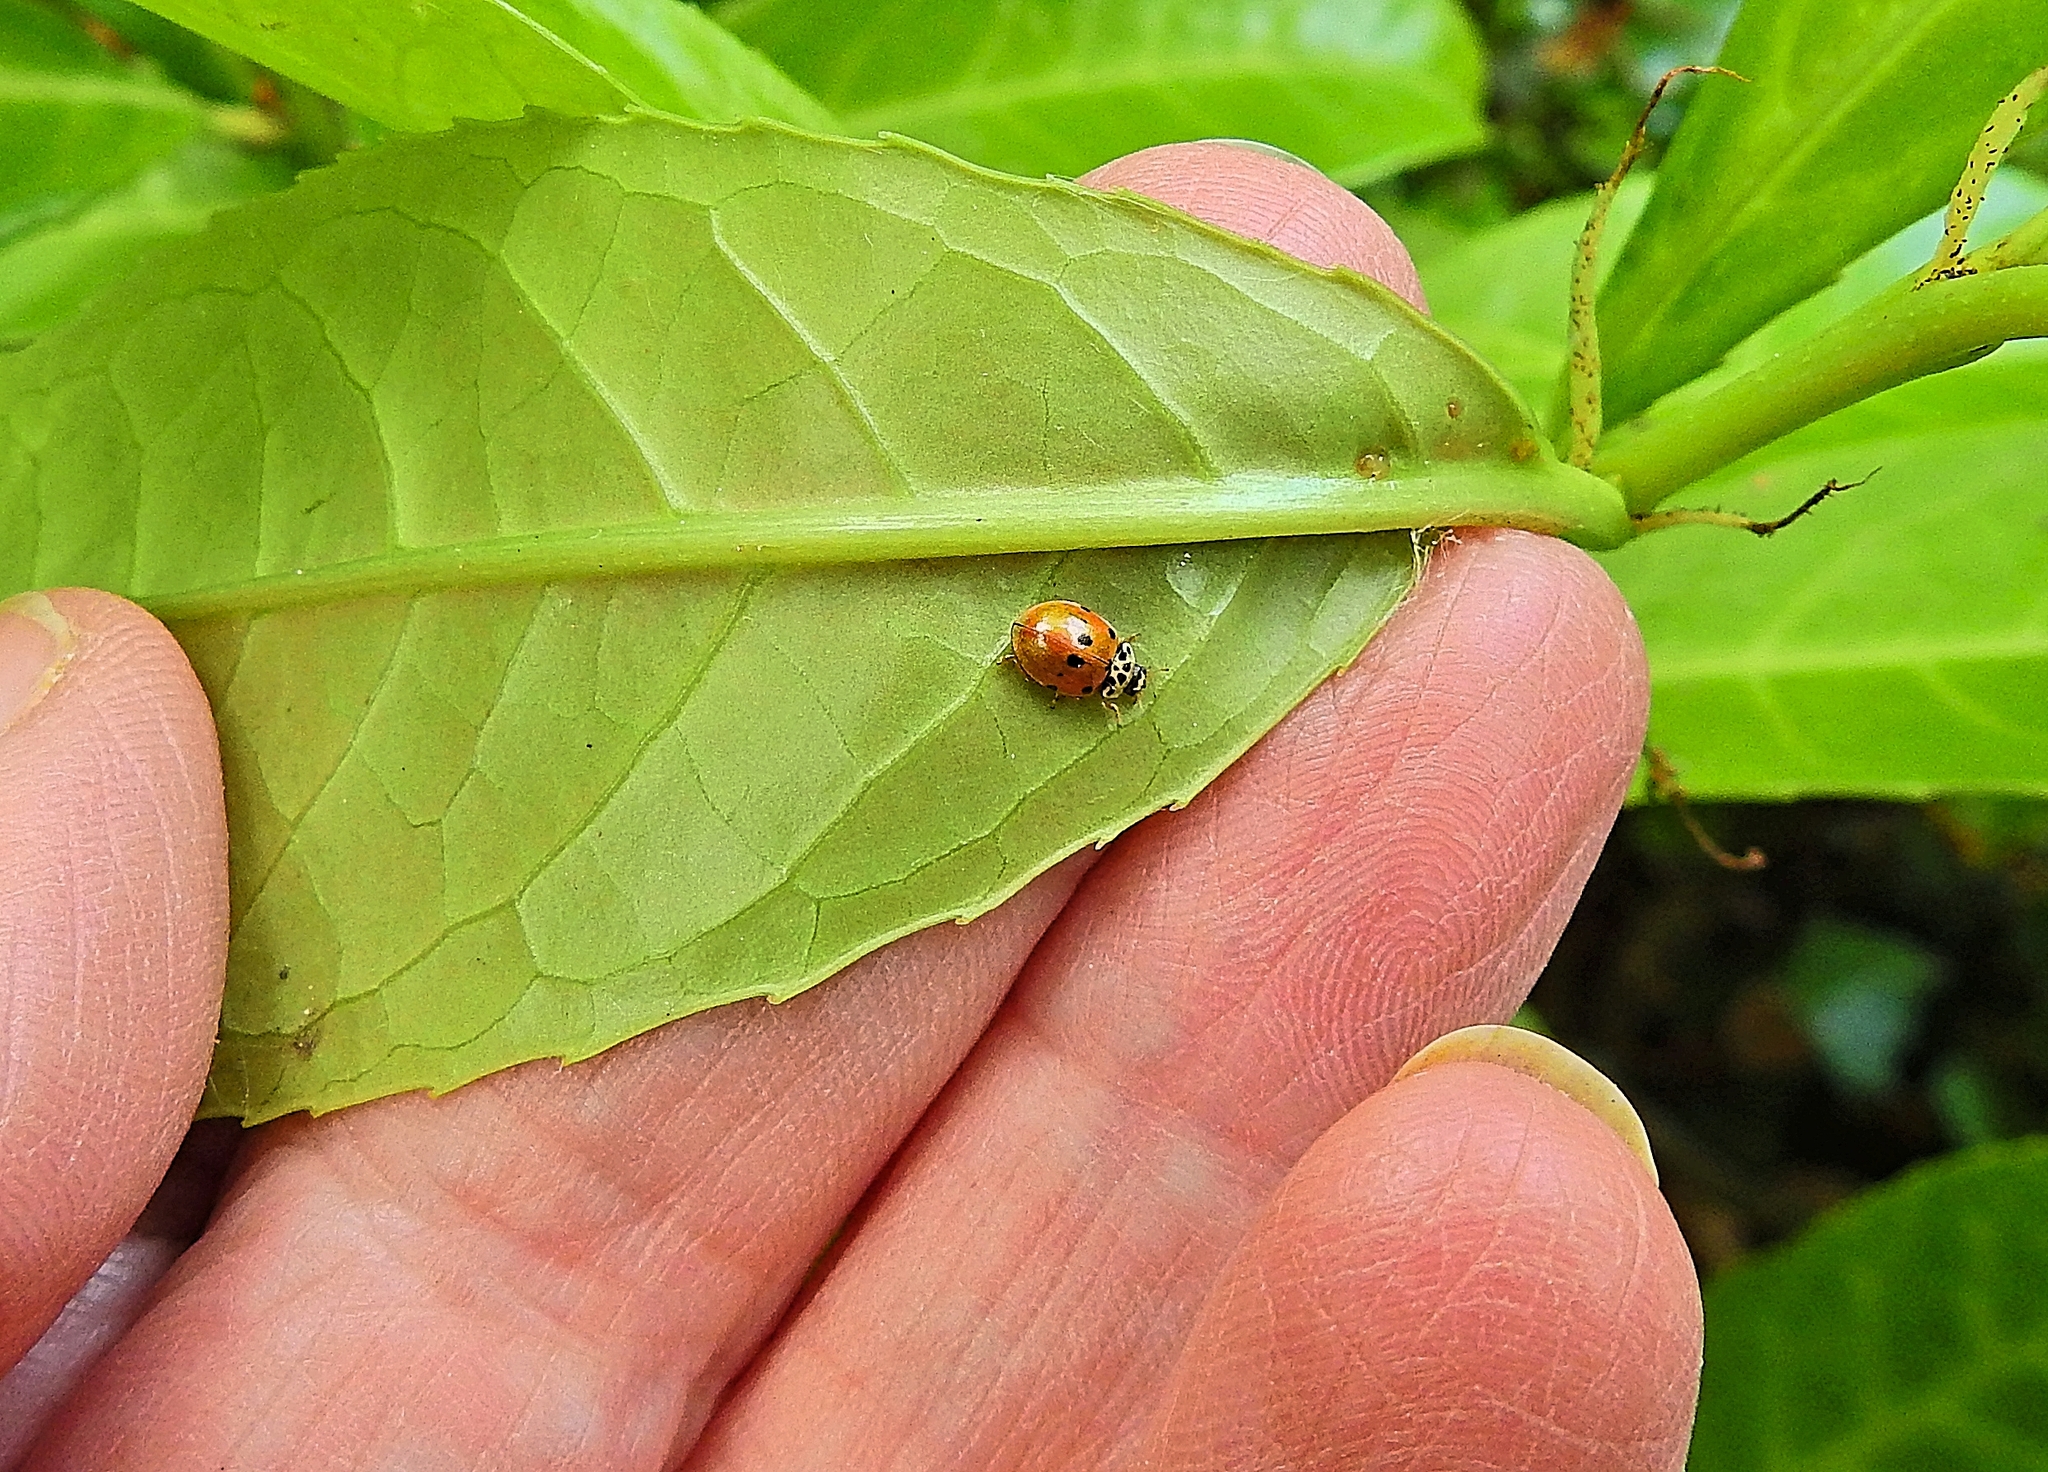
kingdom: Animalia
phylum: Arthropoda
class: Insecta
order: Coleoptera
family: Coccinellidae
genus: Adalia
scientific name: Adalia decempunctata
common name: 10-spot ladybird
